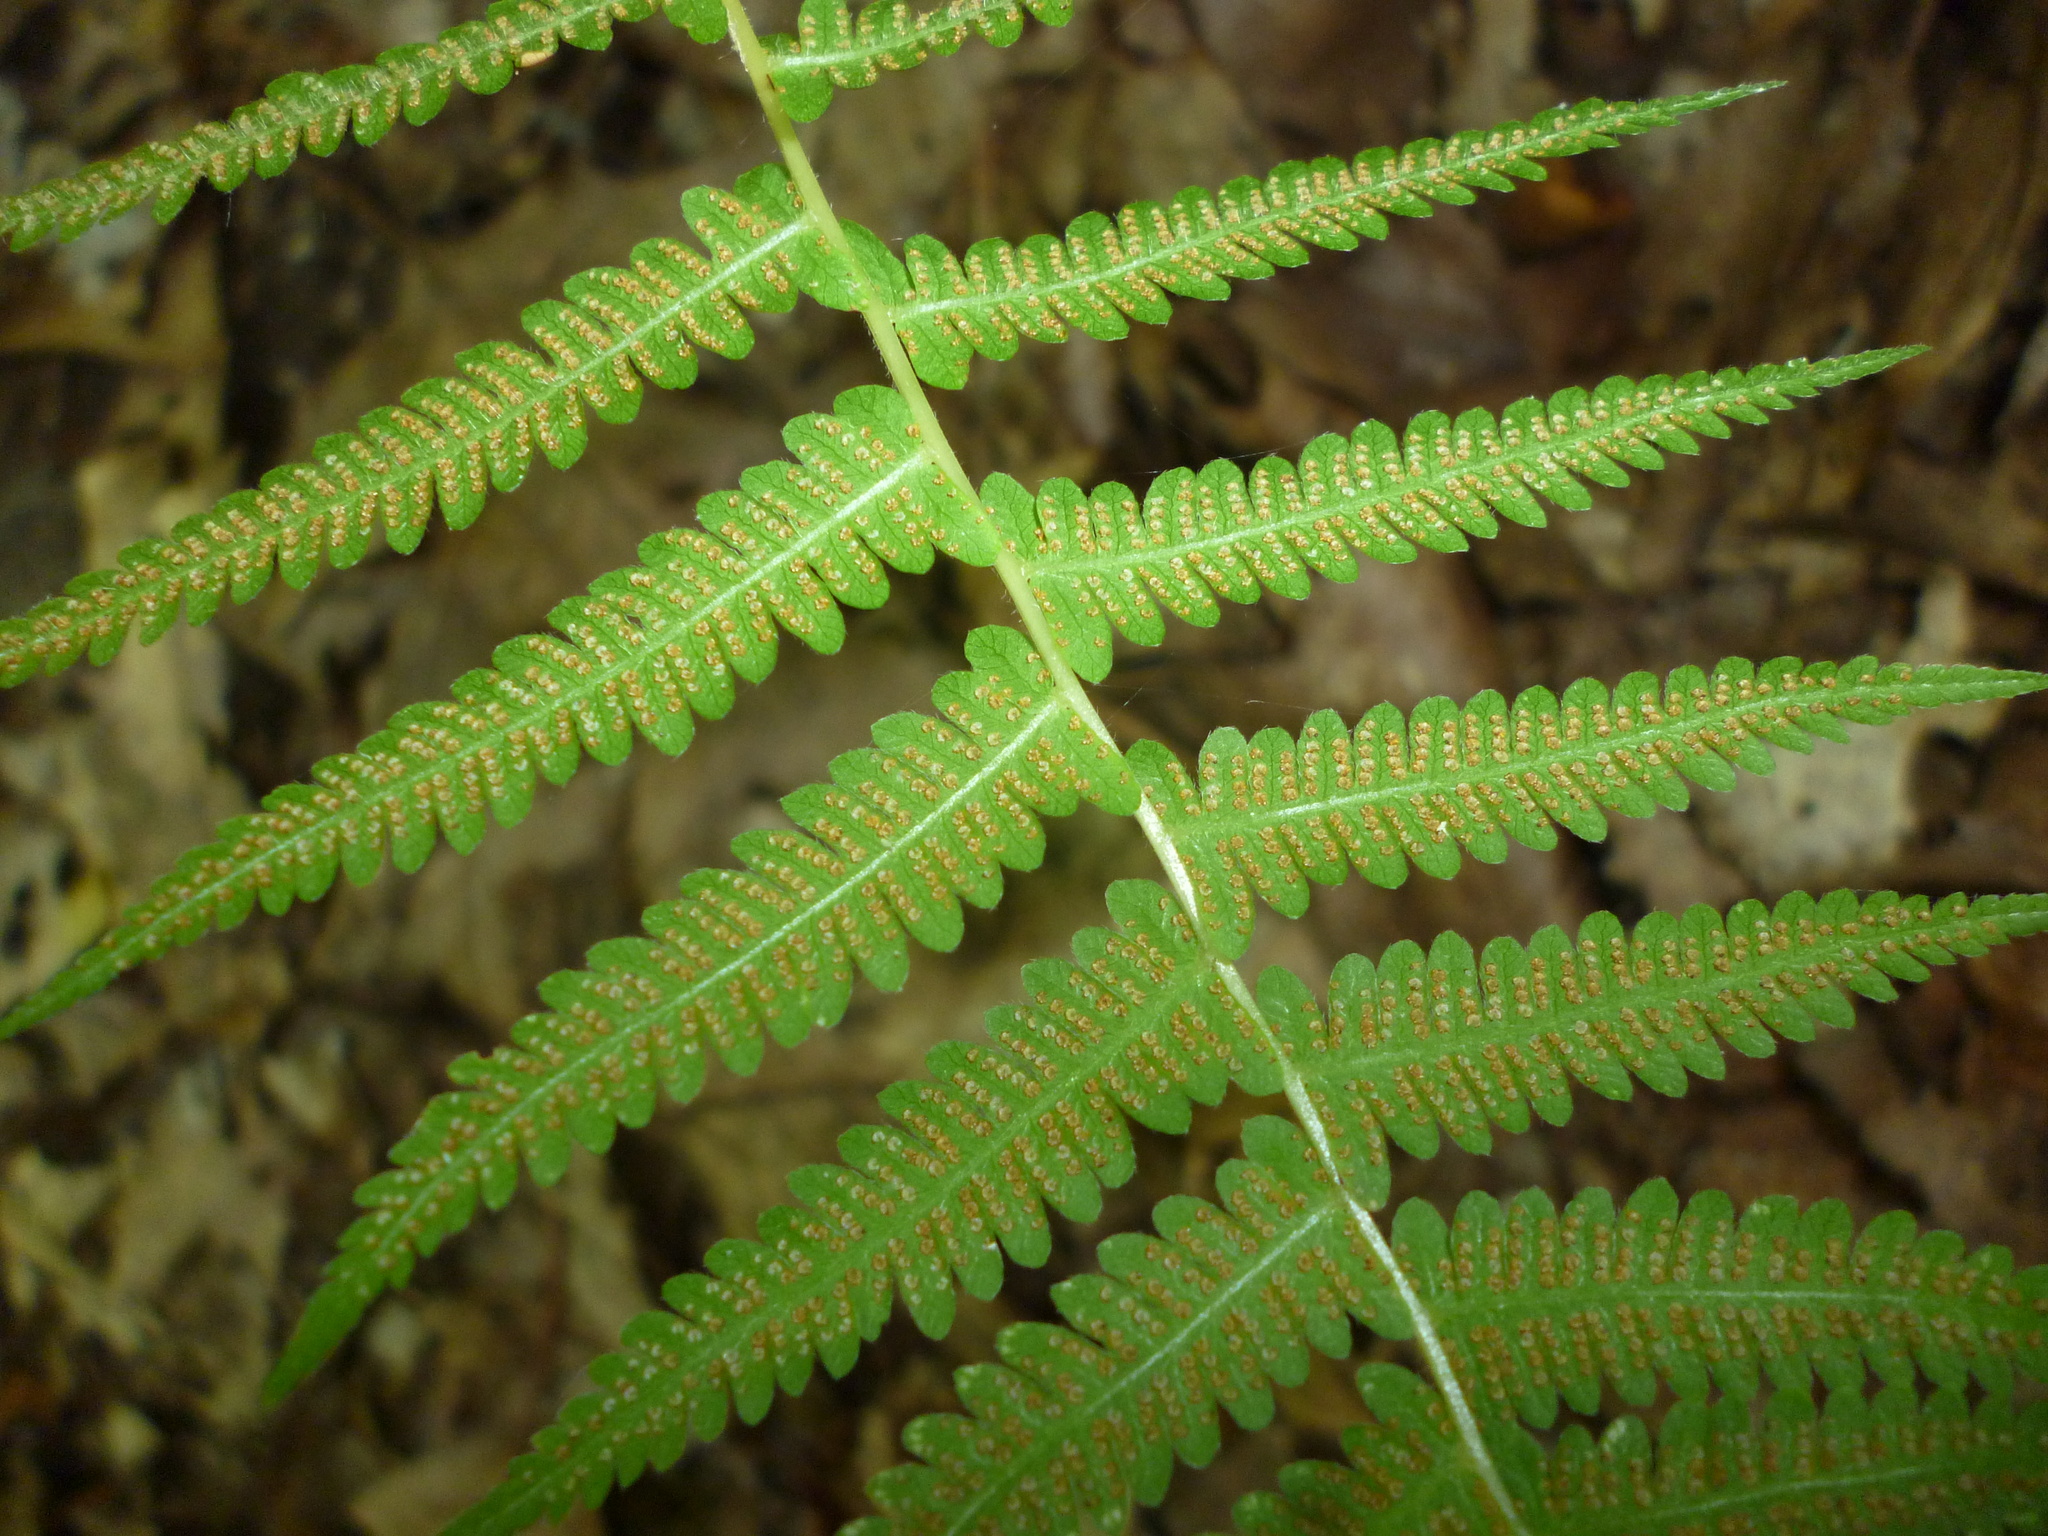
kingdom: Plantae
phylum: Tracheophyta
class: Polypodiopsida
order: Polypodiales
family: Thelypteridaceae
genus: Amauropelta
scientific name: Amauropelta noveboracensis
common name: New york fern
